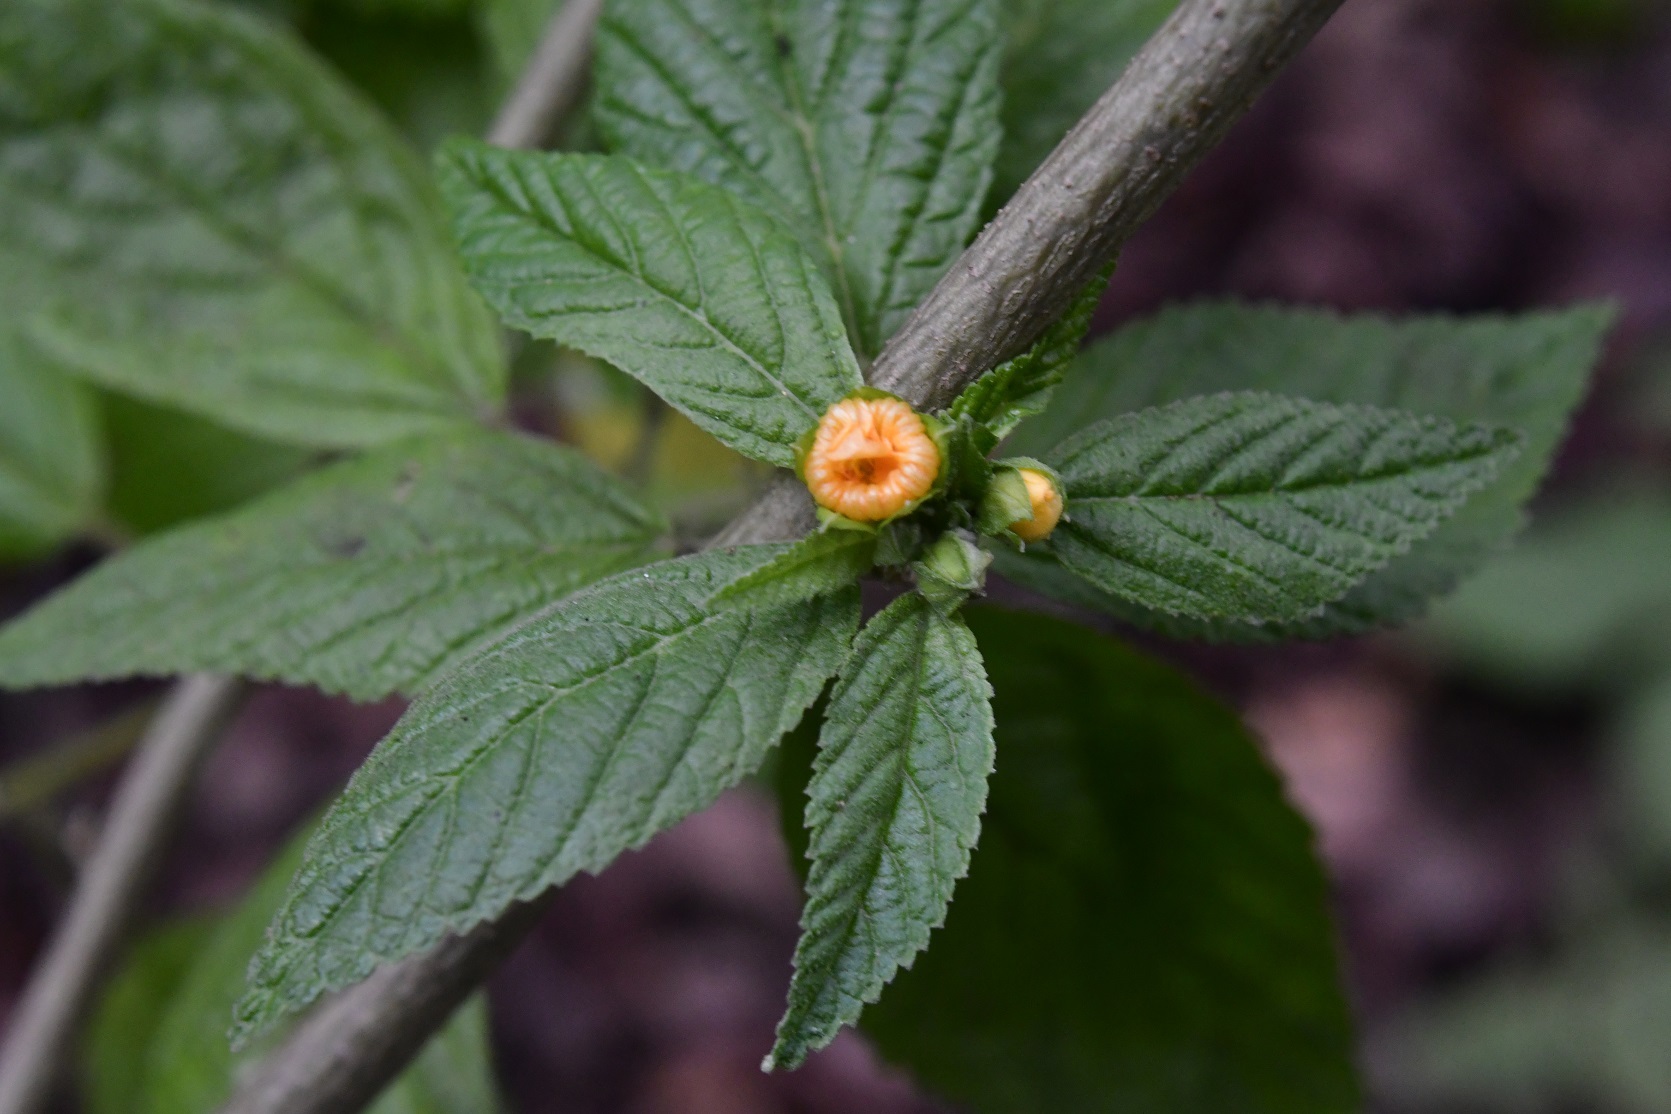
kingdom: Plantae
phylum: Tracheophyta
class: Magnoliopsida
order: Malvales
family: Malvaceae
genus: Sida
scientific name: Sida acuta
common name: Common wireweed
